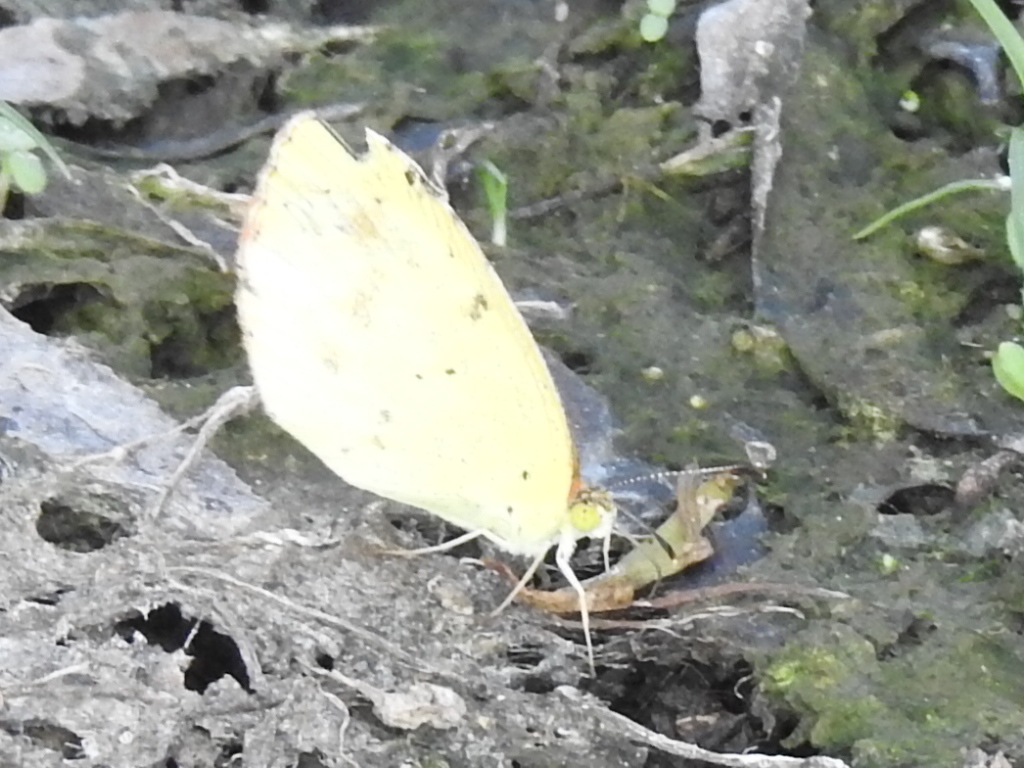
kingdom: Animalia
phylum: Arthropoda
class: Insecta
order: Lepidoptera
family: Pieridae
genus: Pyrisitia
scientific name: Pyrisitia lisa
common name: Little yellow
